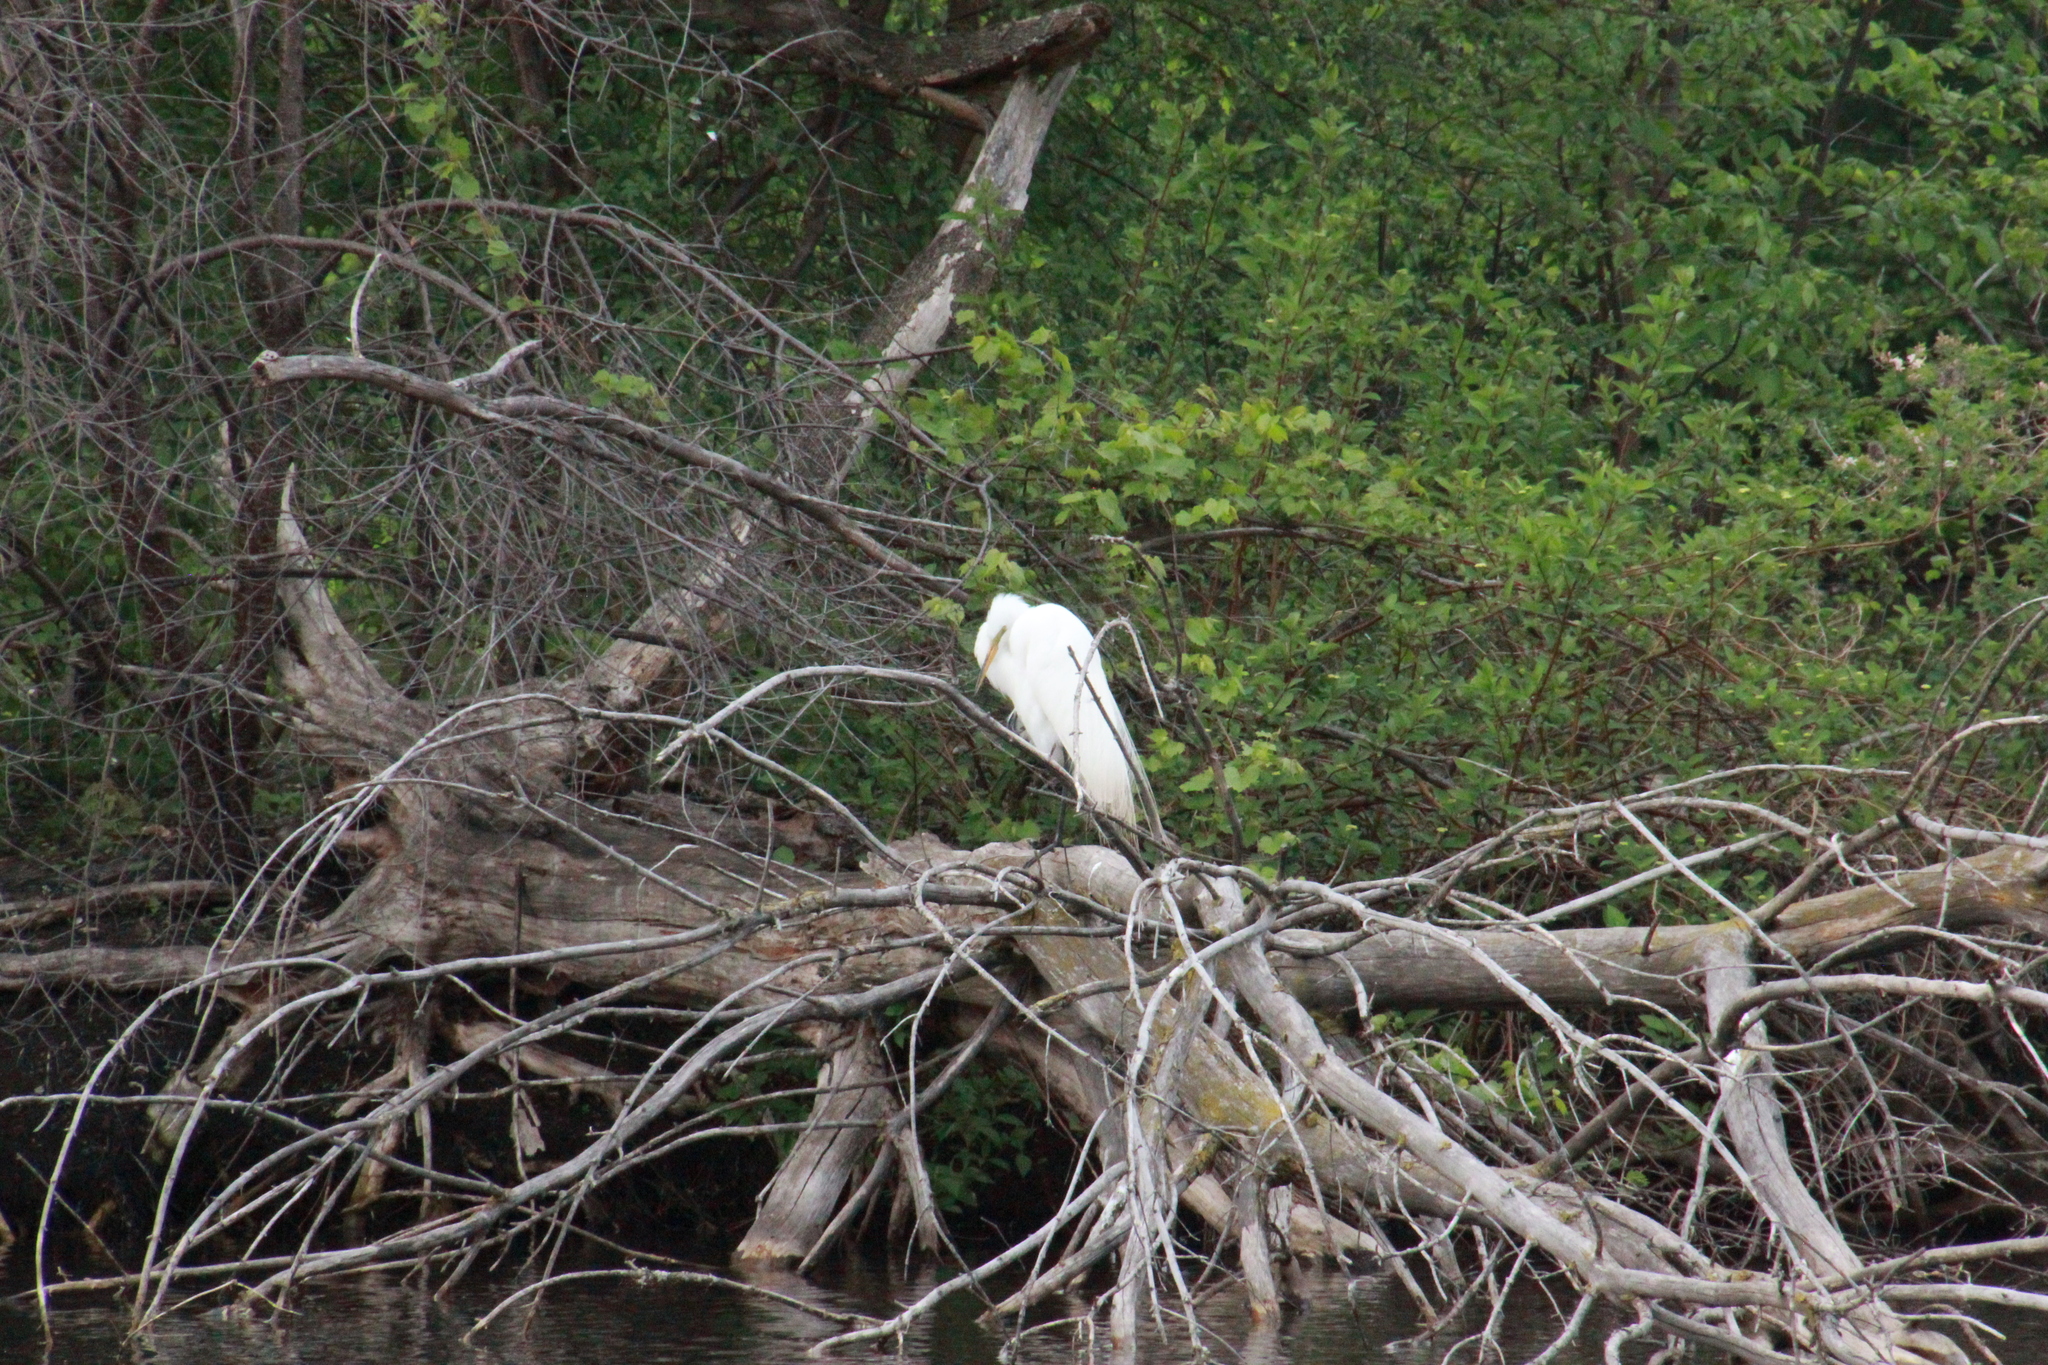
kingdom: Animalia
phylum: Chordata
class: Aves
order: Pelecaniformes
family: Ardeidae
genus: Ardea
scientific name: Ardea alba
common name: Great egret
